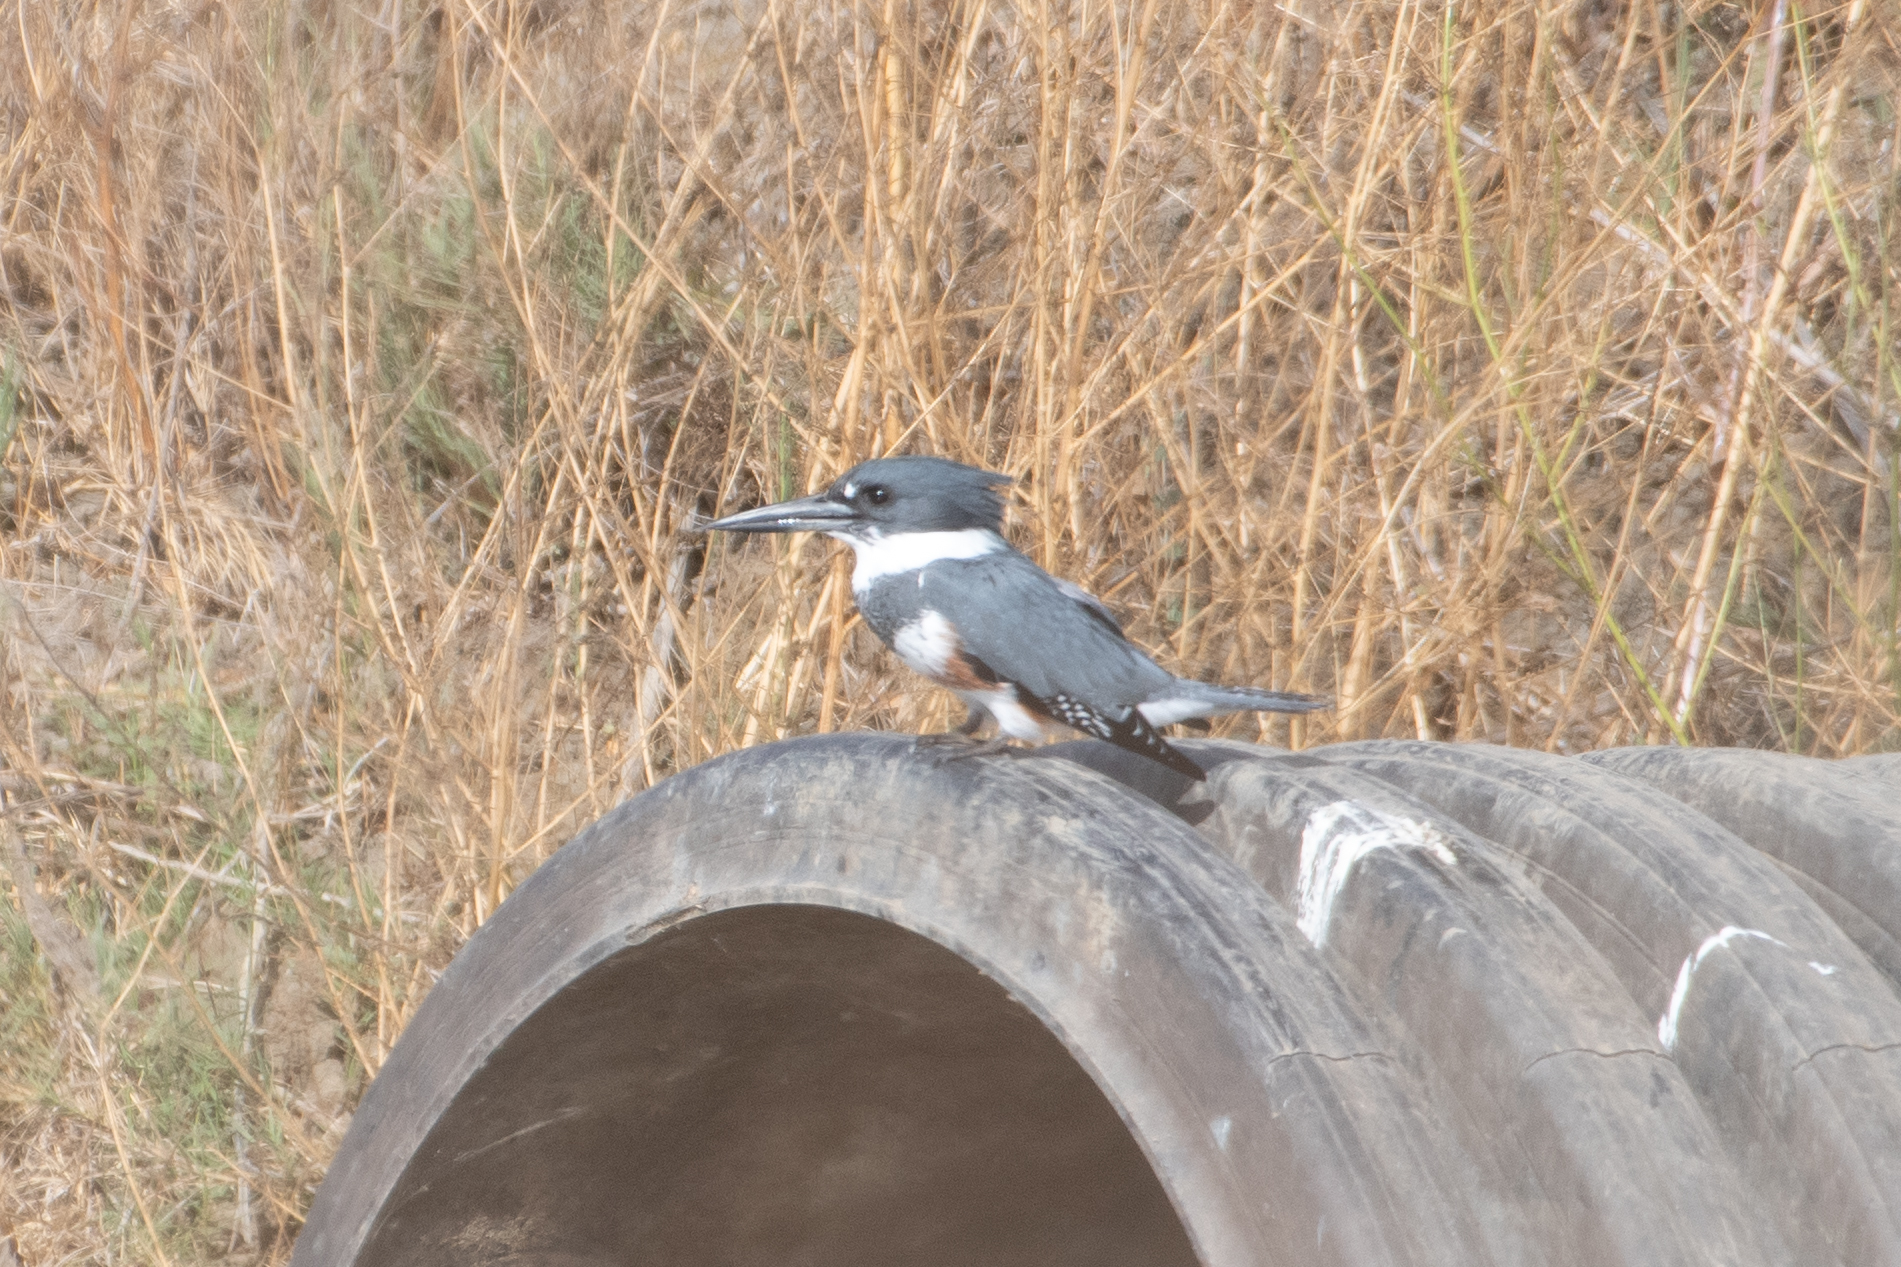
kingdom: Animalia
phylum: Chordata
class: Aves
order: Coraciiformes
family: Alcedinidae
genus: Megaceryle
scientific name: Megaceryle alcyon
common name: Belted kingfisher
